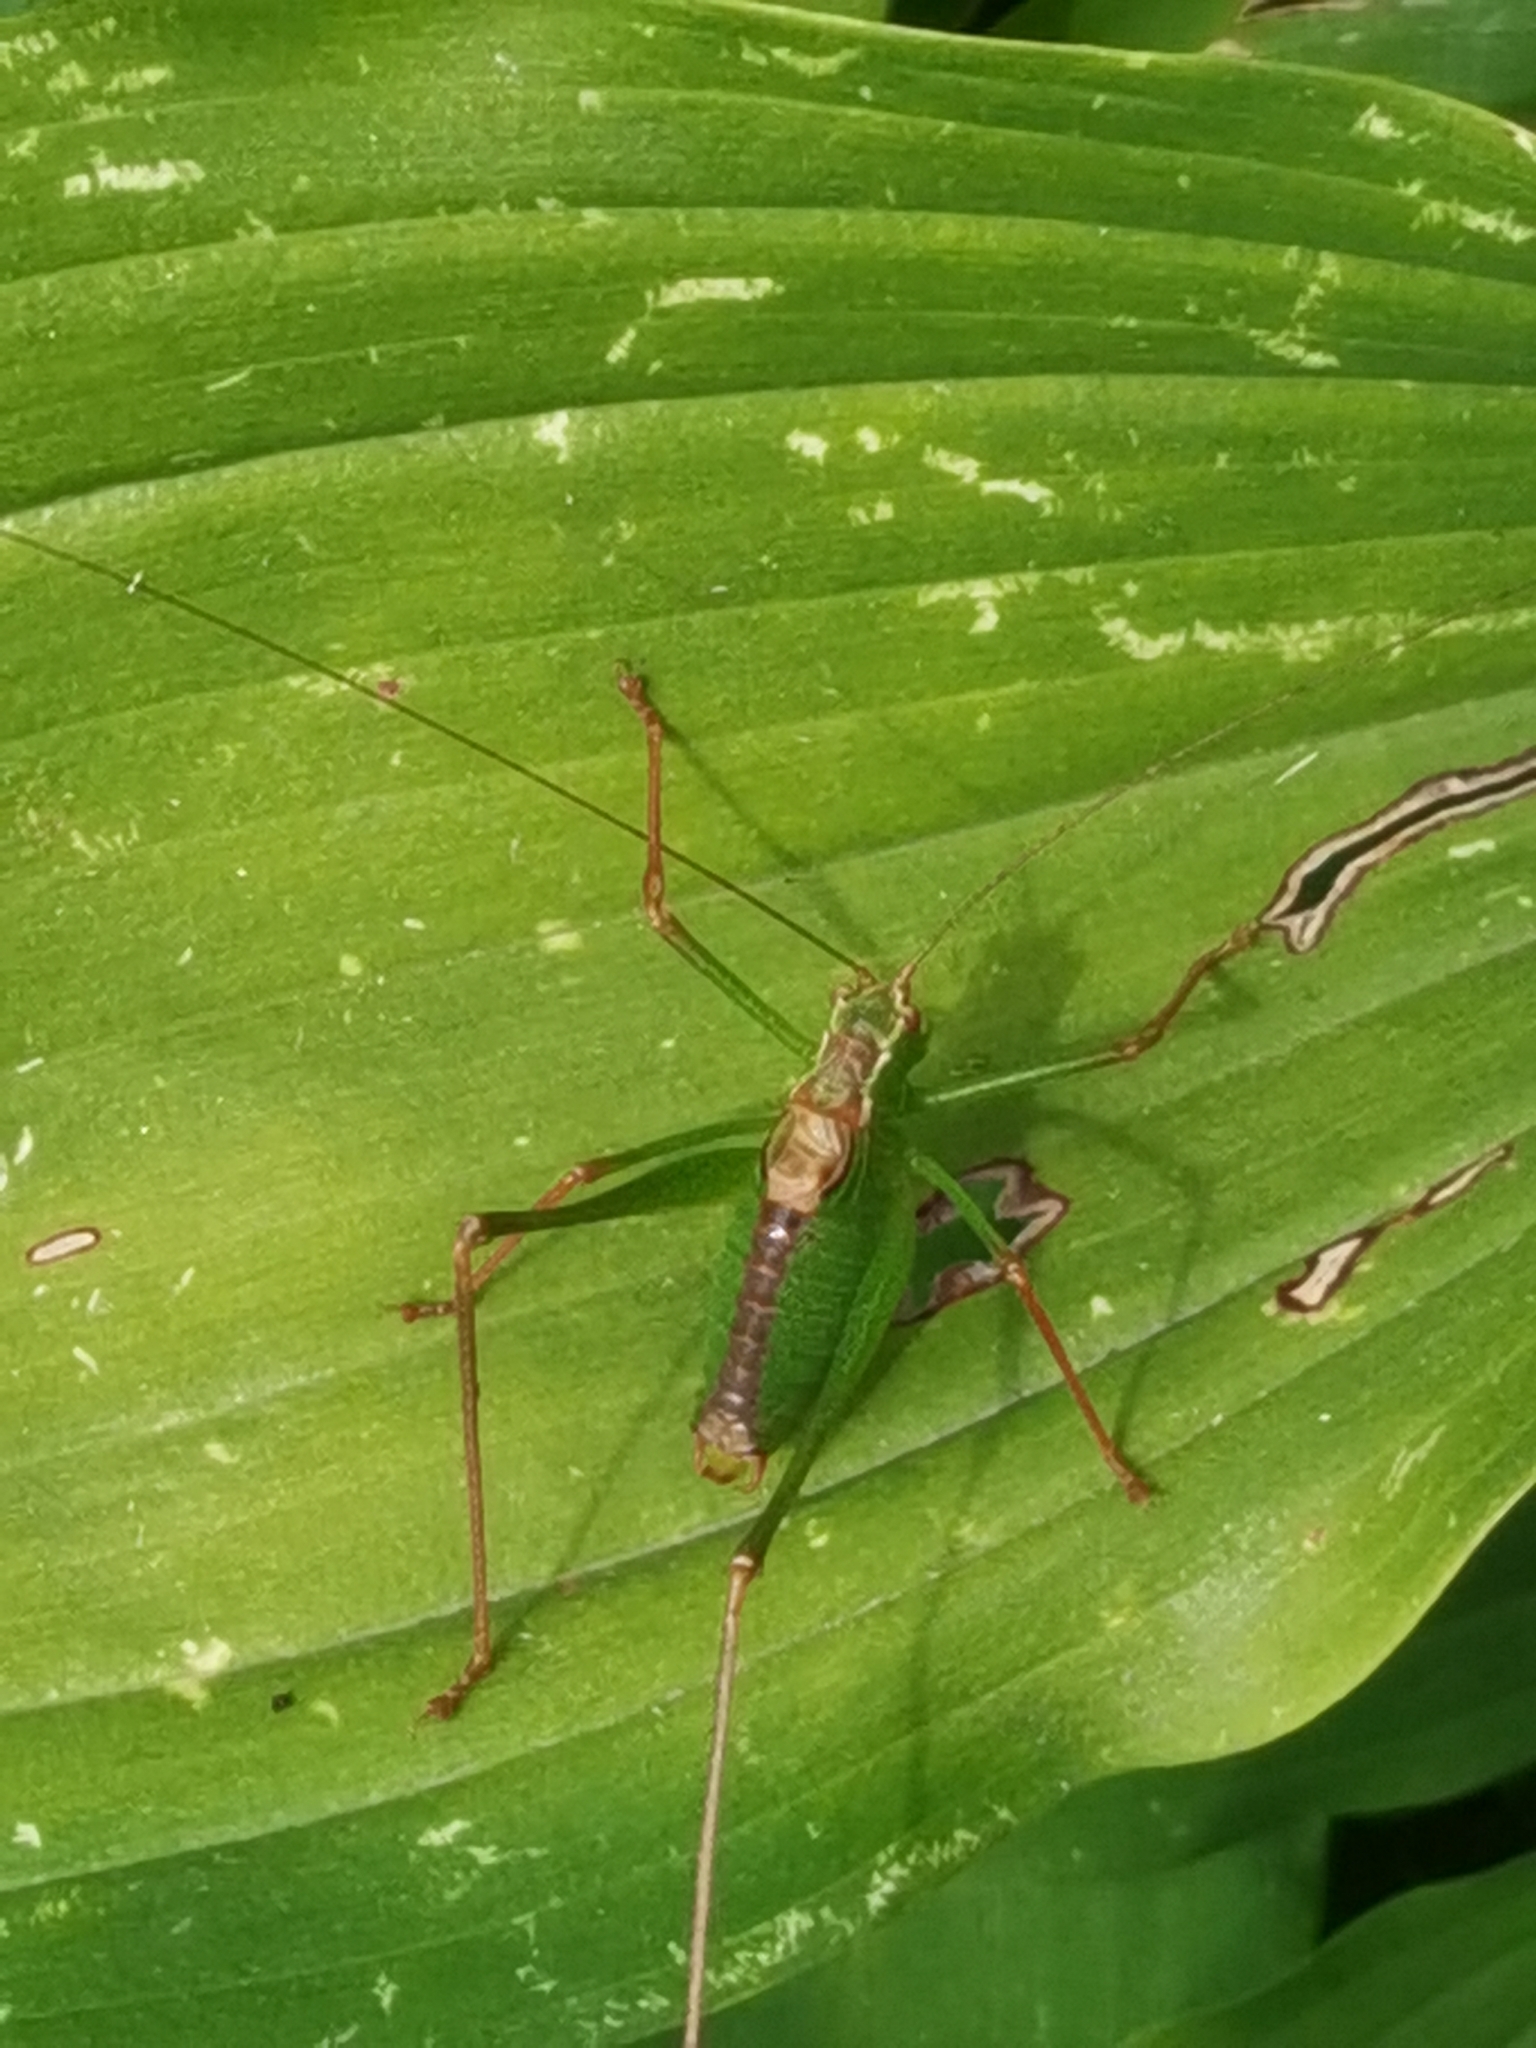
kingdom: Animalia
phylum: Arthropoda
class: Insecta
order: Orthoptera
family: Tettigoniidae
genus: Leptophyes
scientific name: Leptophyes punctatissima
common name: Speckled bush-cricket
